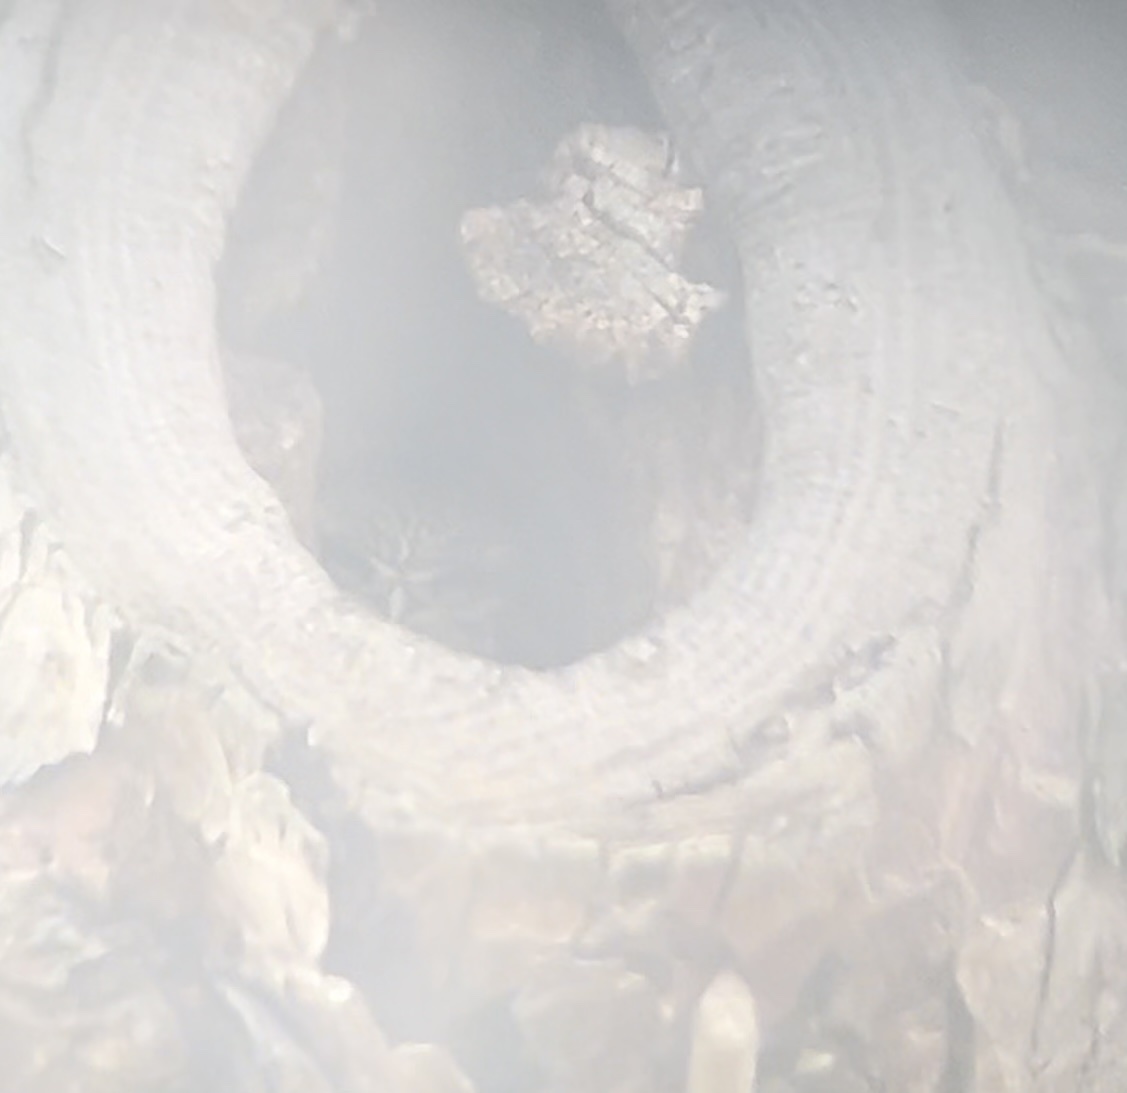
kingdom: Animalia
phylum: Chordata
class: Aves
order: Strigiformes
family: Strigidae
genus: Athene
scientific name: Athene noctua
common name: Little owl
